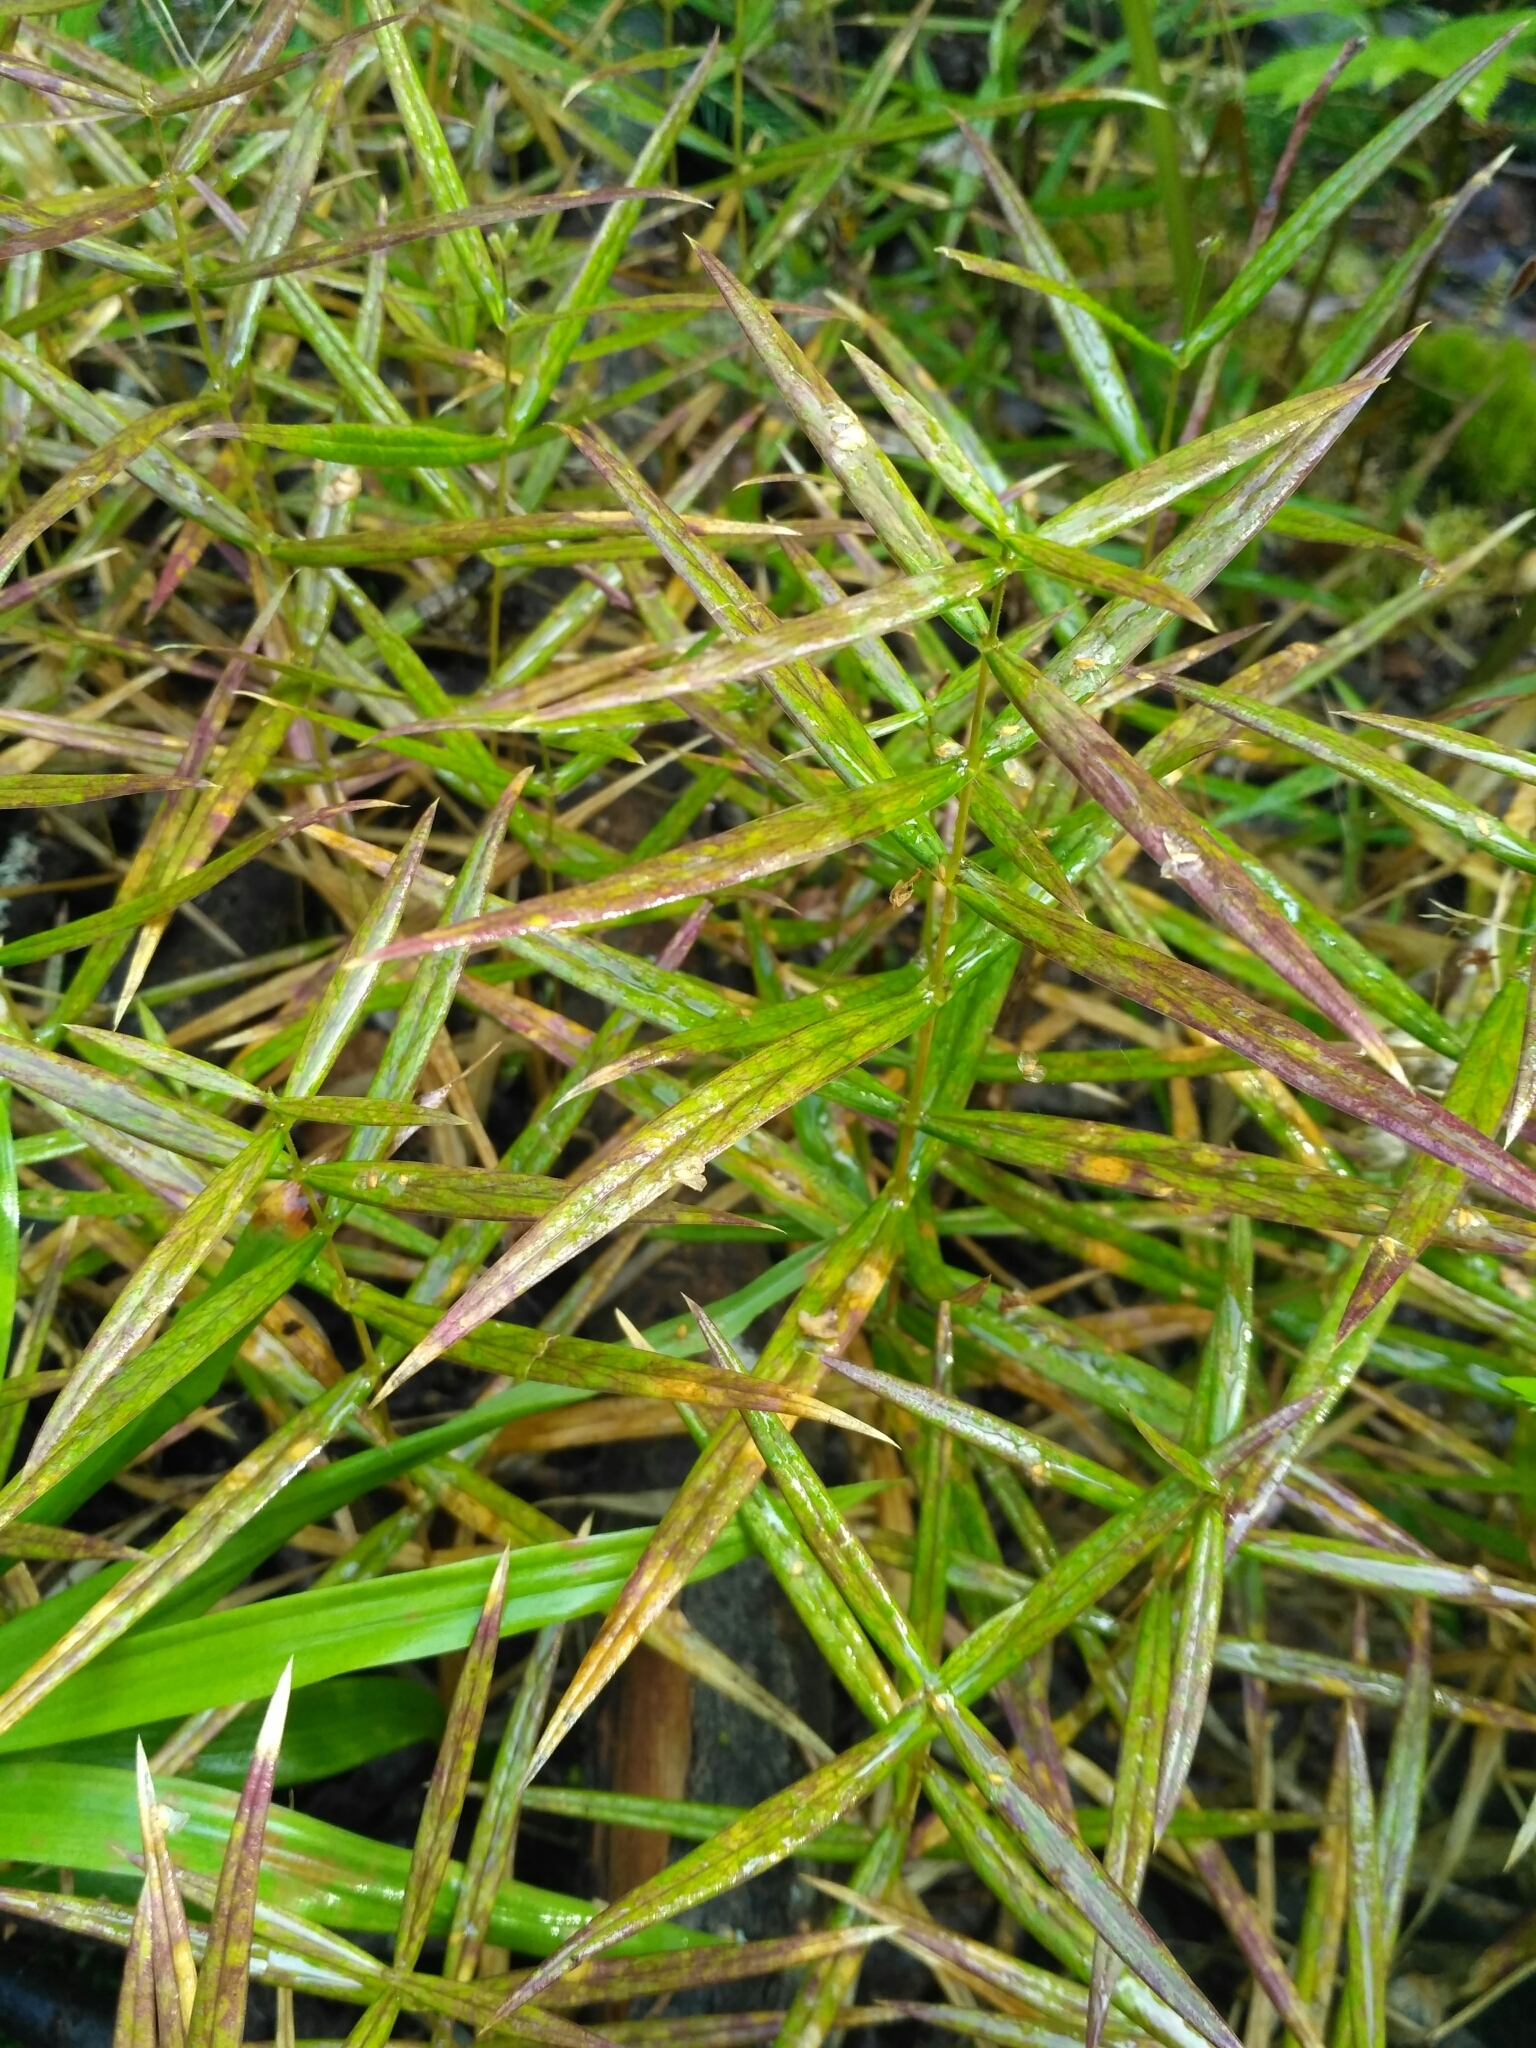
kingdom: Plantae
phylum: Tracheophyta
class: Magnoliopsida
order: Caryophyllales
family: Caryophyllaceae
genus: Rabelera
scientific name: Rabelera holostea
